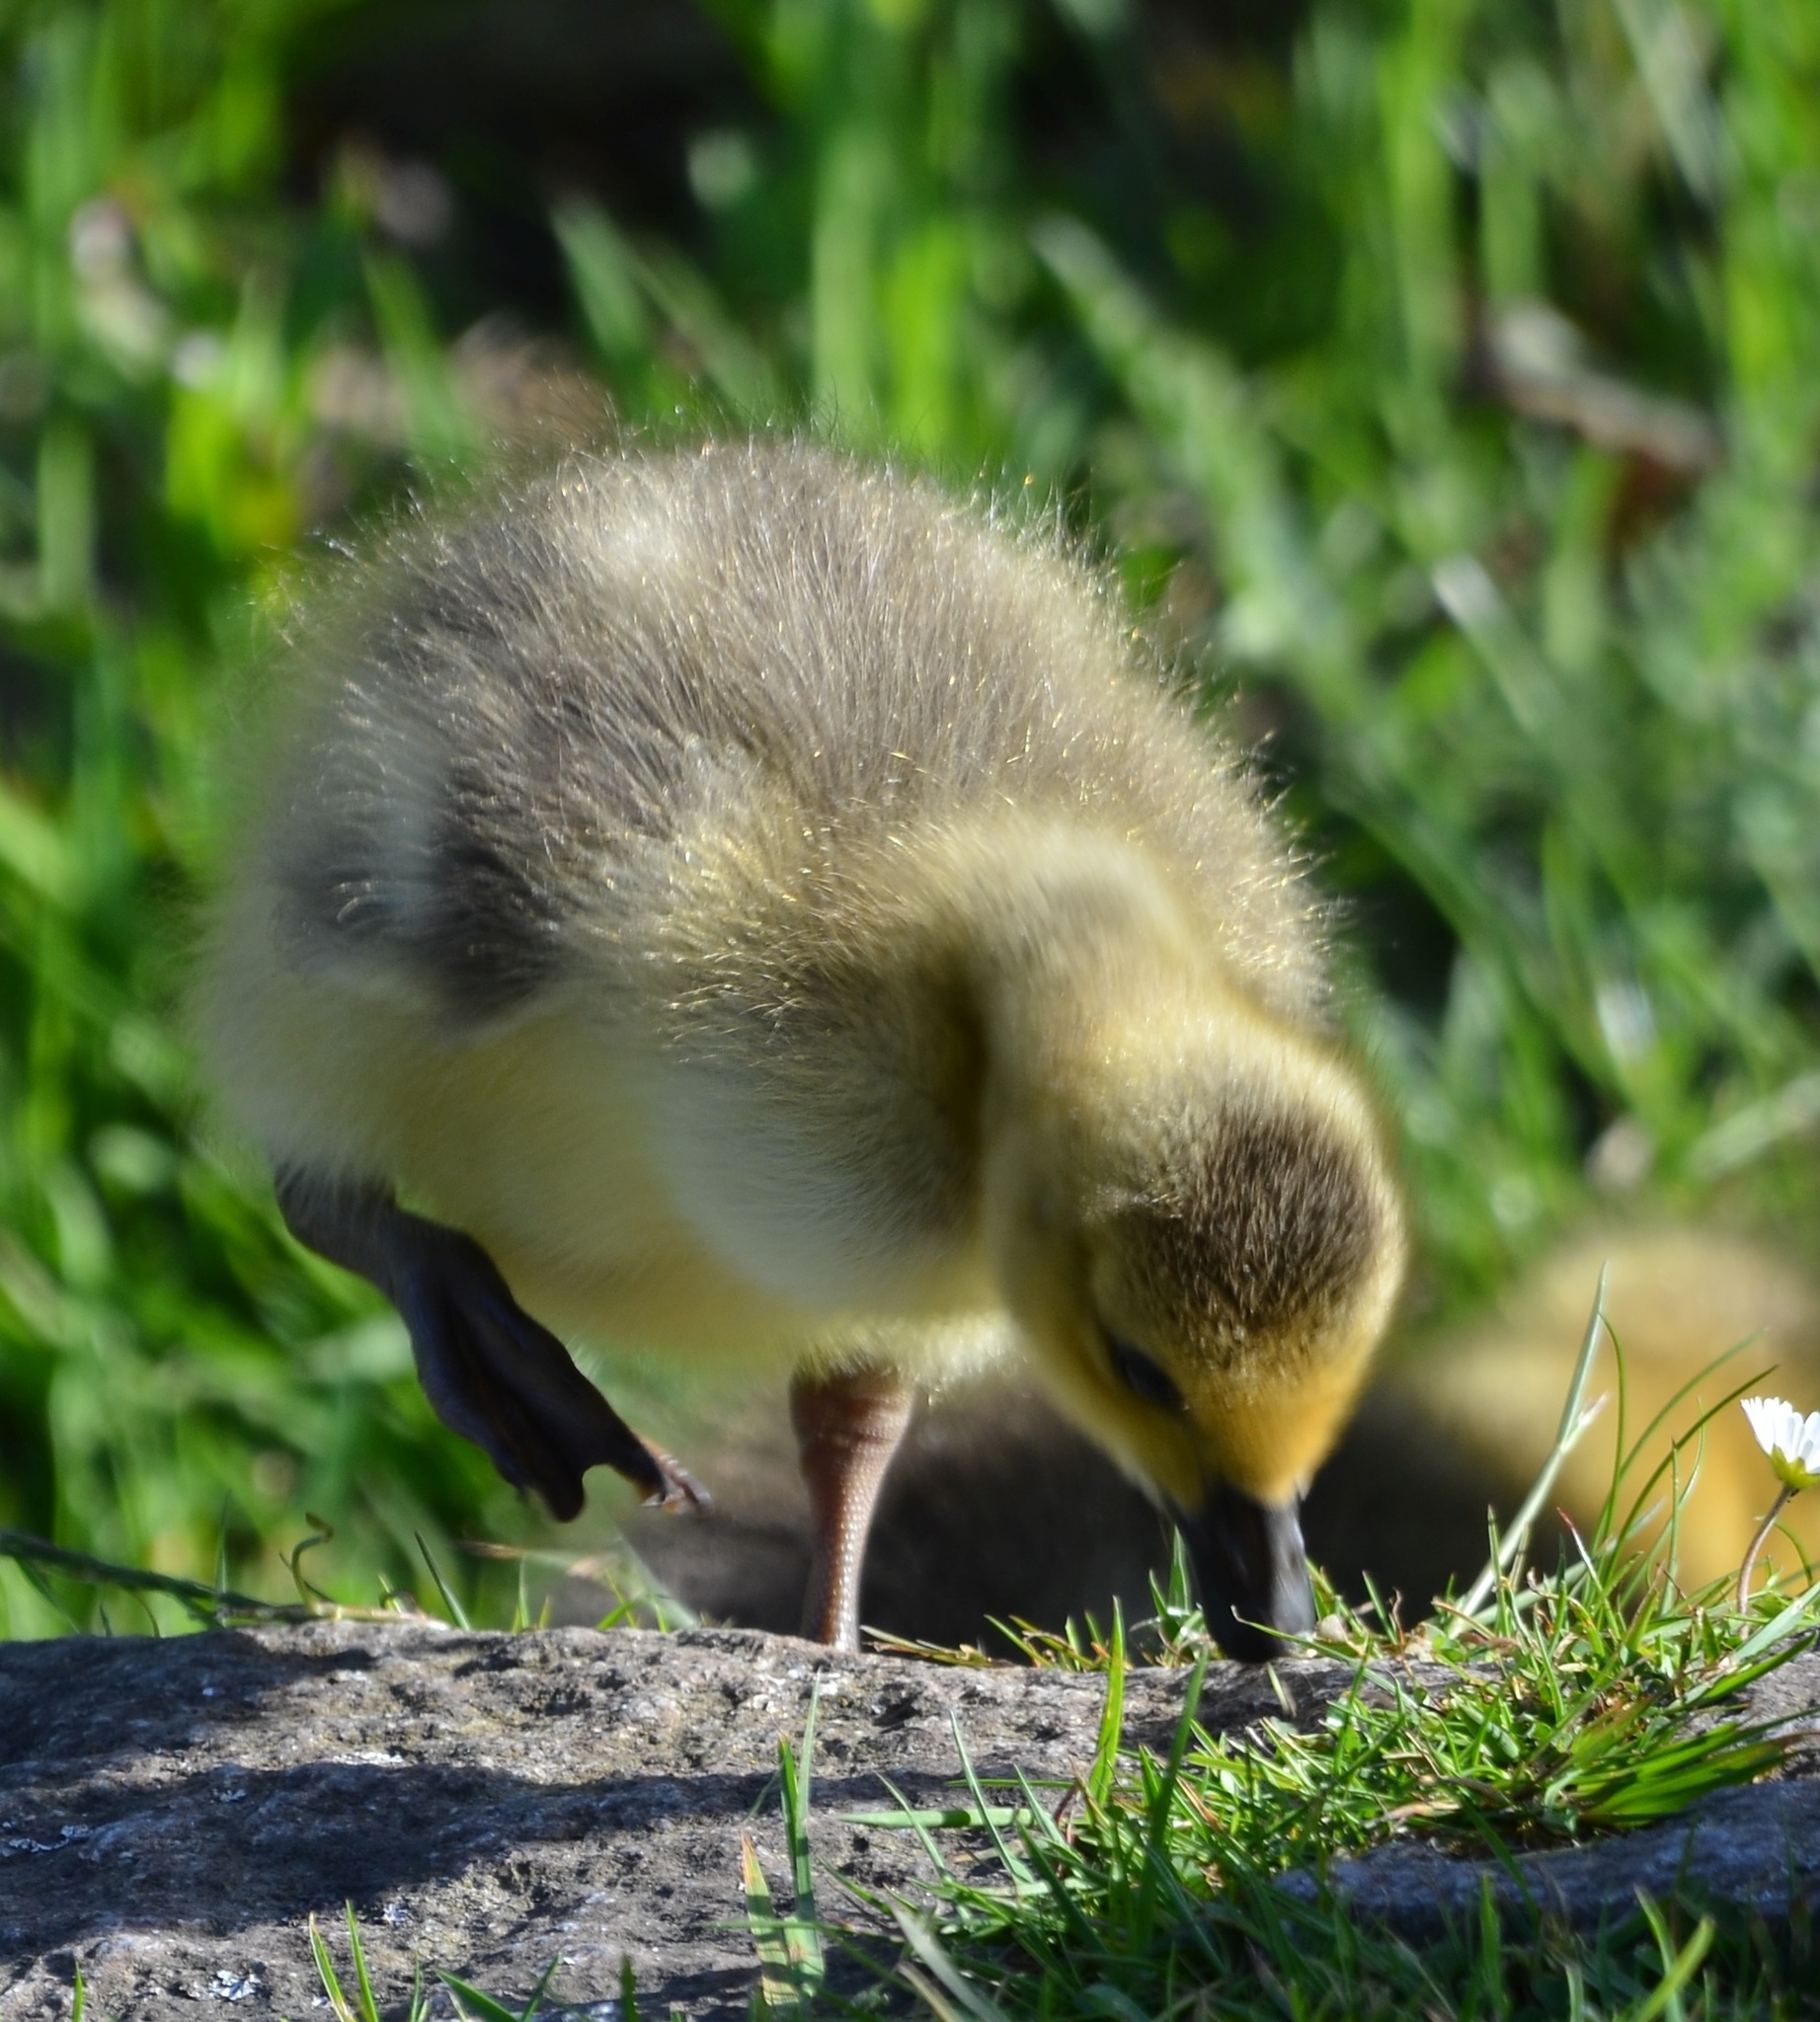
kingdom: Animalia
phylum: Chordata
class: Aves
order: Anseriformes
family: Anatidae
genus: Branta
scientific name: Branta canadensis
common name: Canada goose
